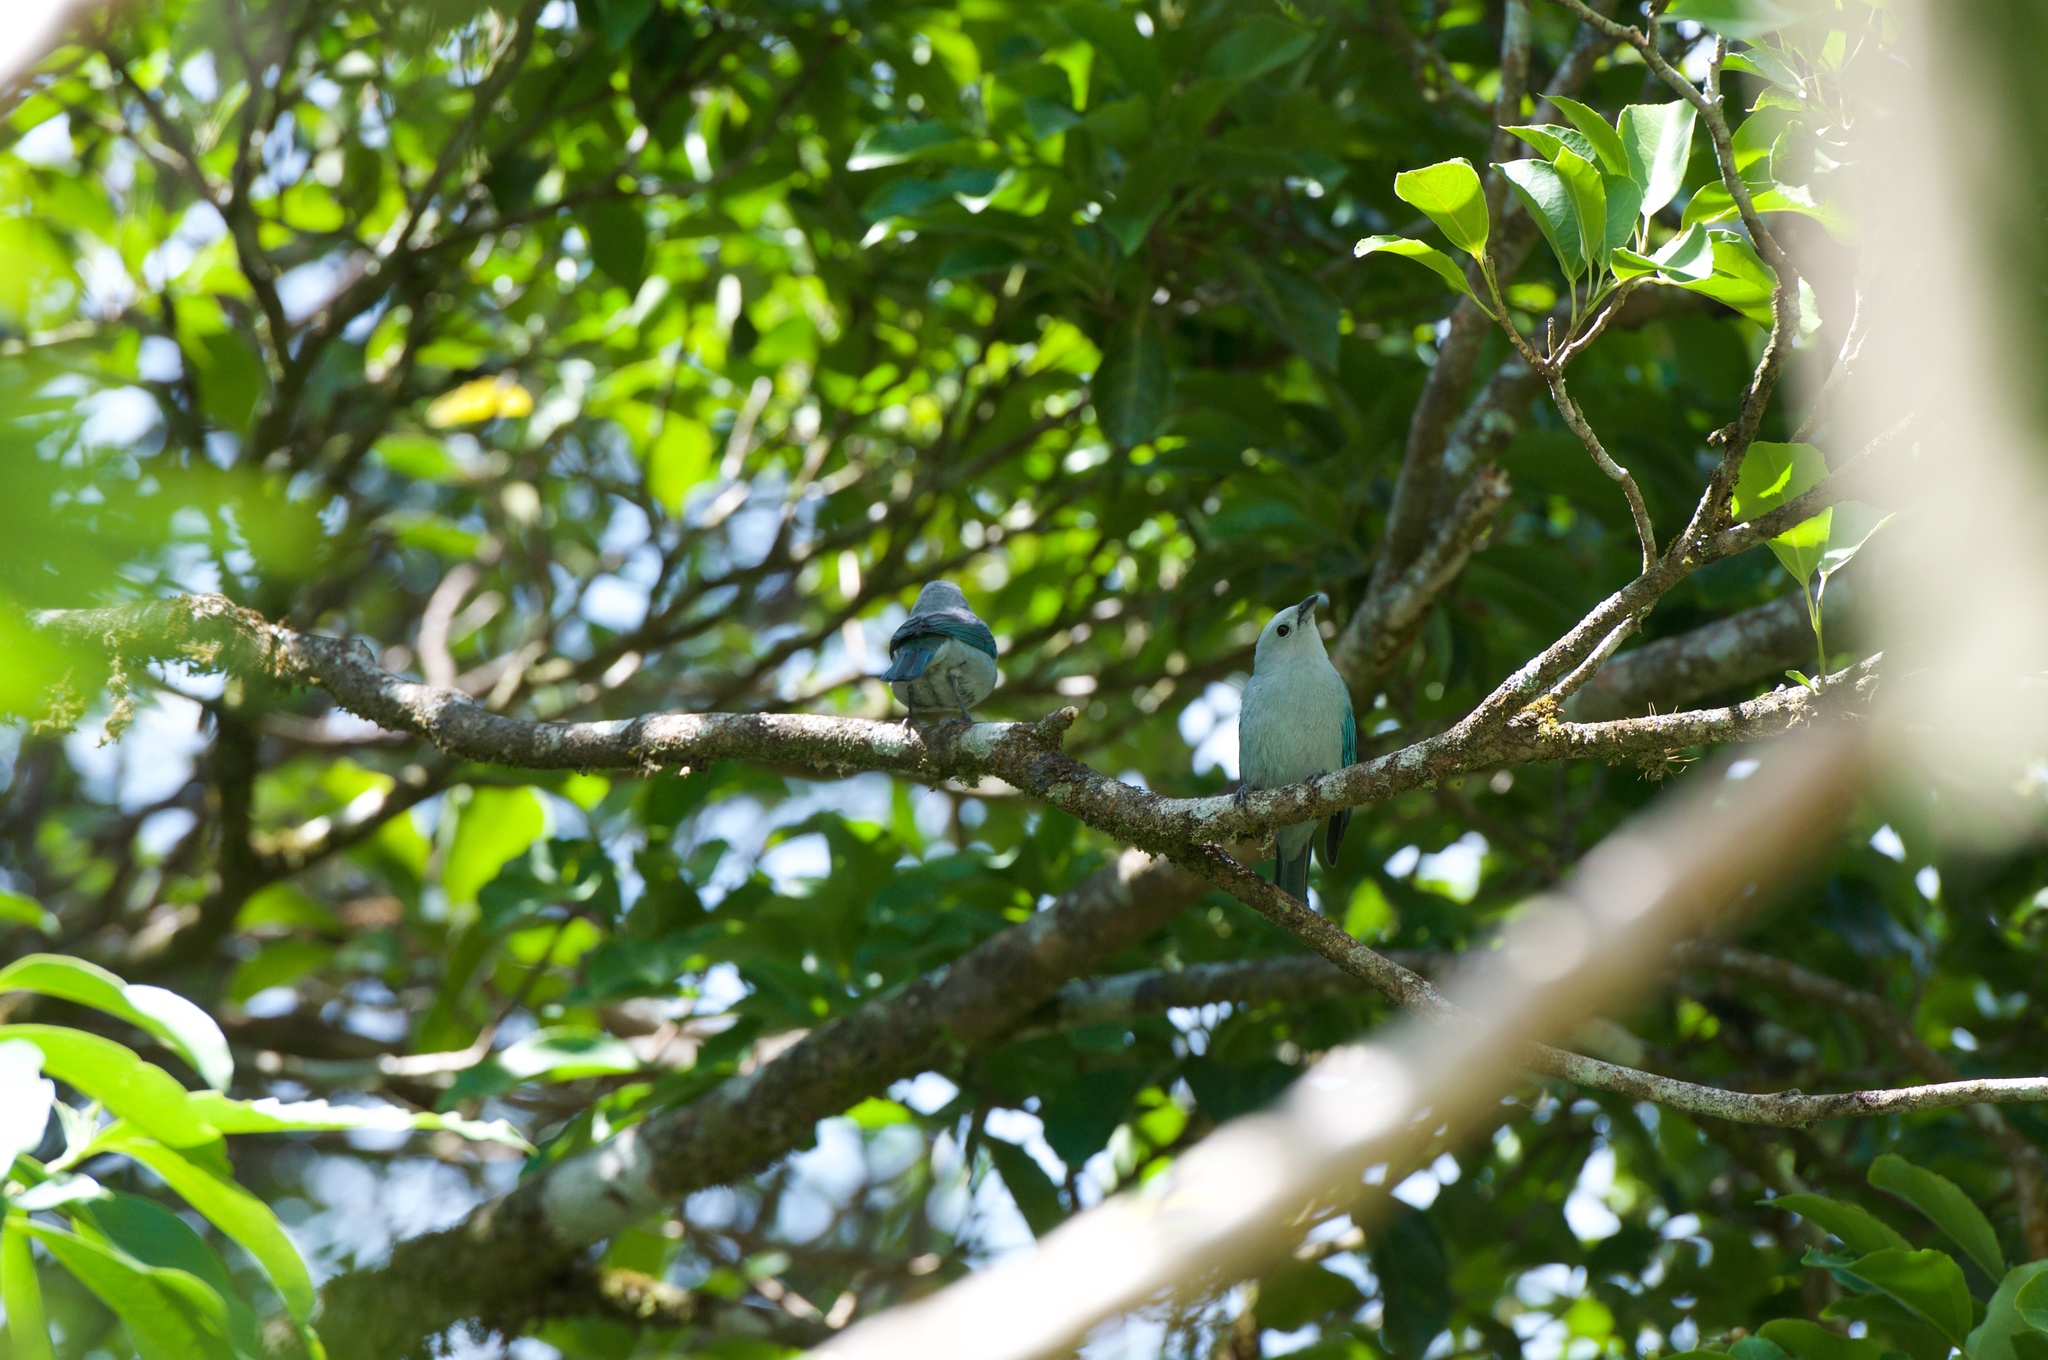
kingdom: Animalia
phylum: Chordata
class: Aves
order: Passeriformes
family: Thraupidae
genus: Thraupis
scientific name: Thraupis episcopus
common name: Blue-grey tanager
